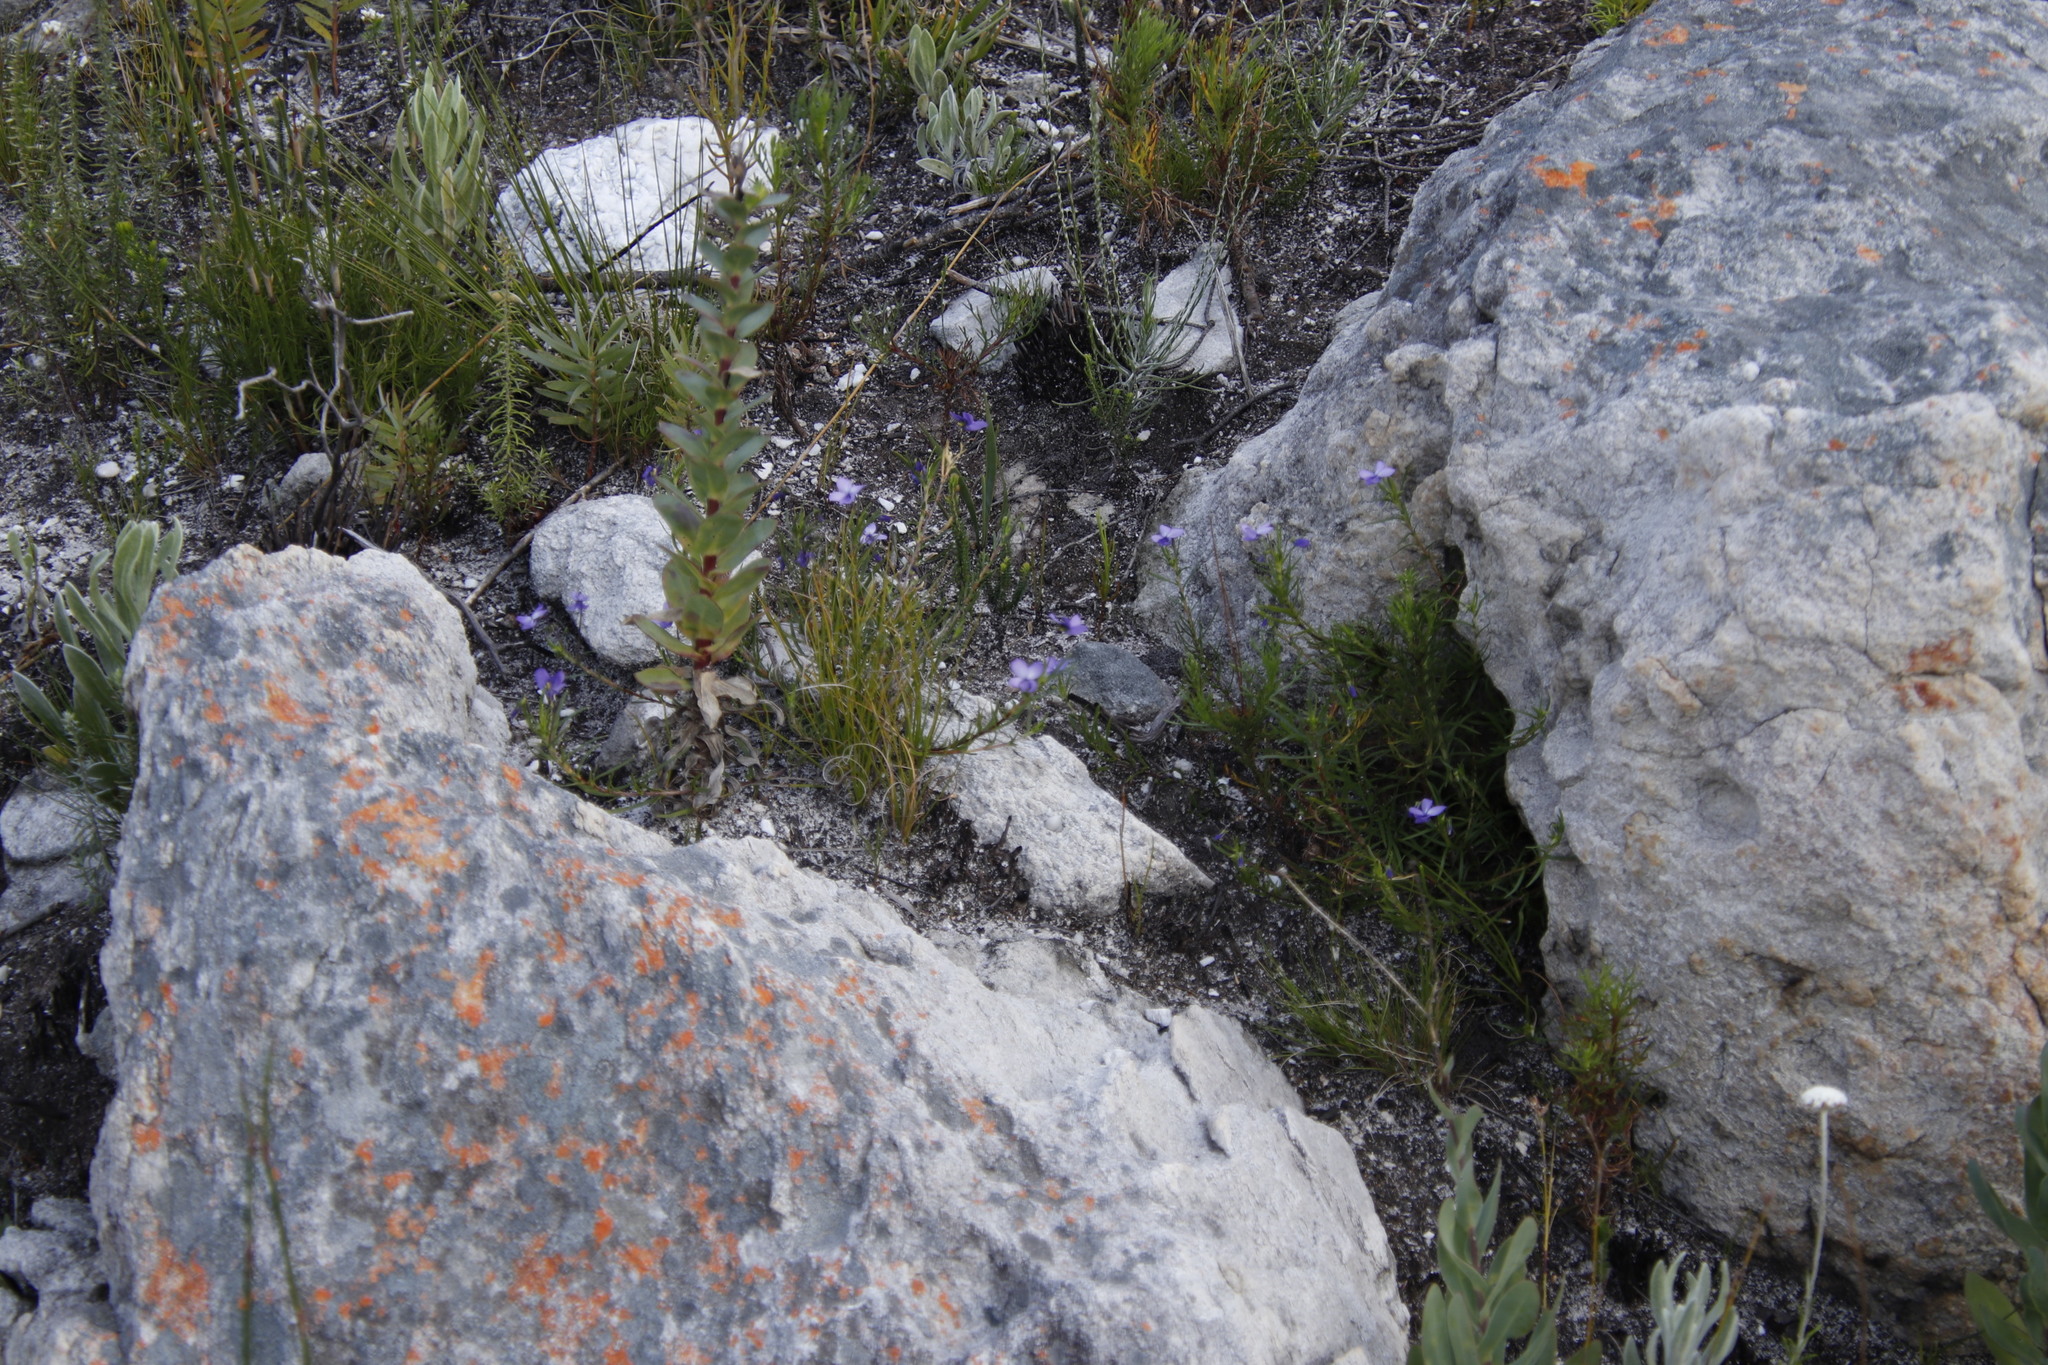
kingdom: Plantae
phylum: Tracheophyta
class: Magnoliopsida
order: Malpighiales
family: Violaceae
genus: Viola
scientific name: Viola decumbens
